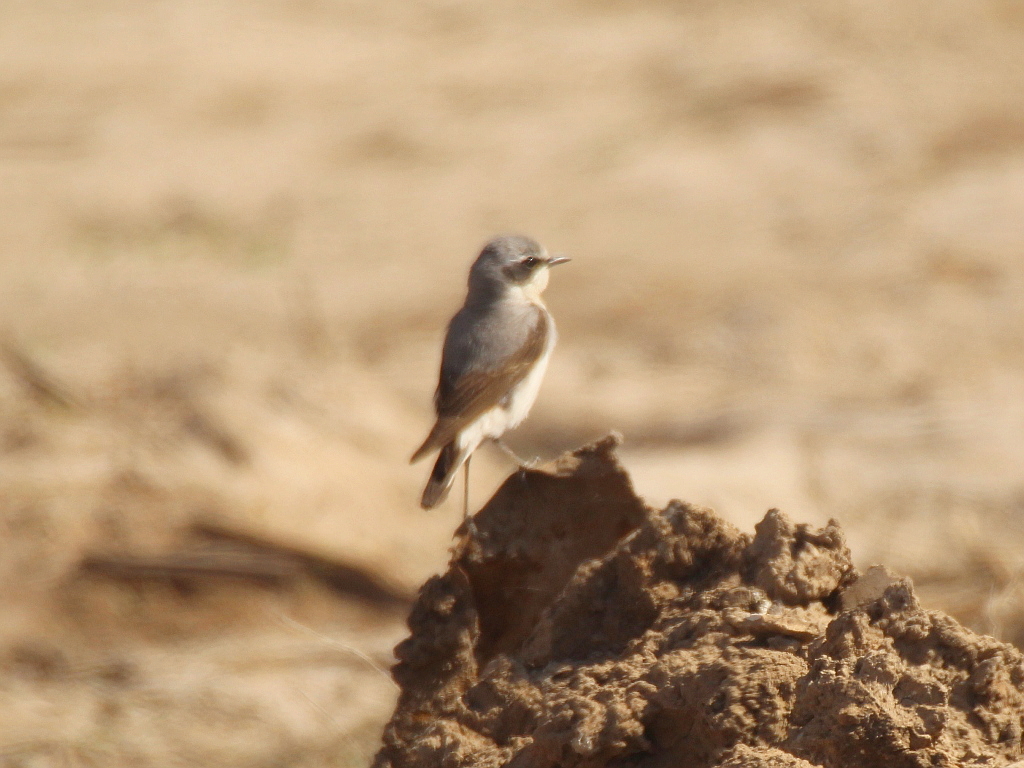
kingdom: Animalia
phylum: Chordata
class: Aves
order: Passeriformes
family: Muscicapidae
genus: Oenanthe
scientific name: Oenanthe oenanthe
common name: Northern wheatear
